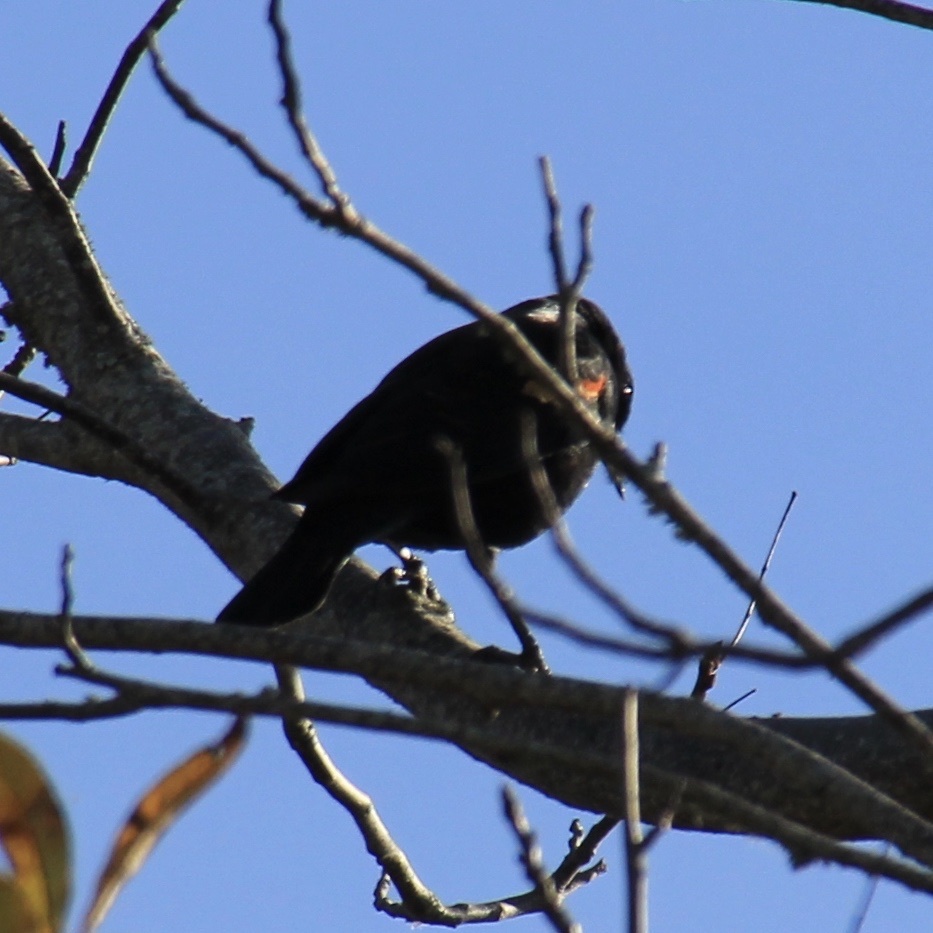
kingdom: Animalia
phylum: Chordata
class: Aves
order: Passeriformes
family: Icteridae
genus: Agelaius
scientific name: Agelaius phoeniceus
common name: Red-winged blackbird
